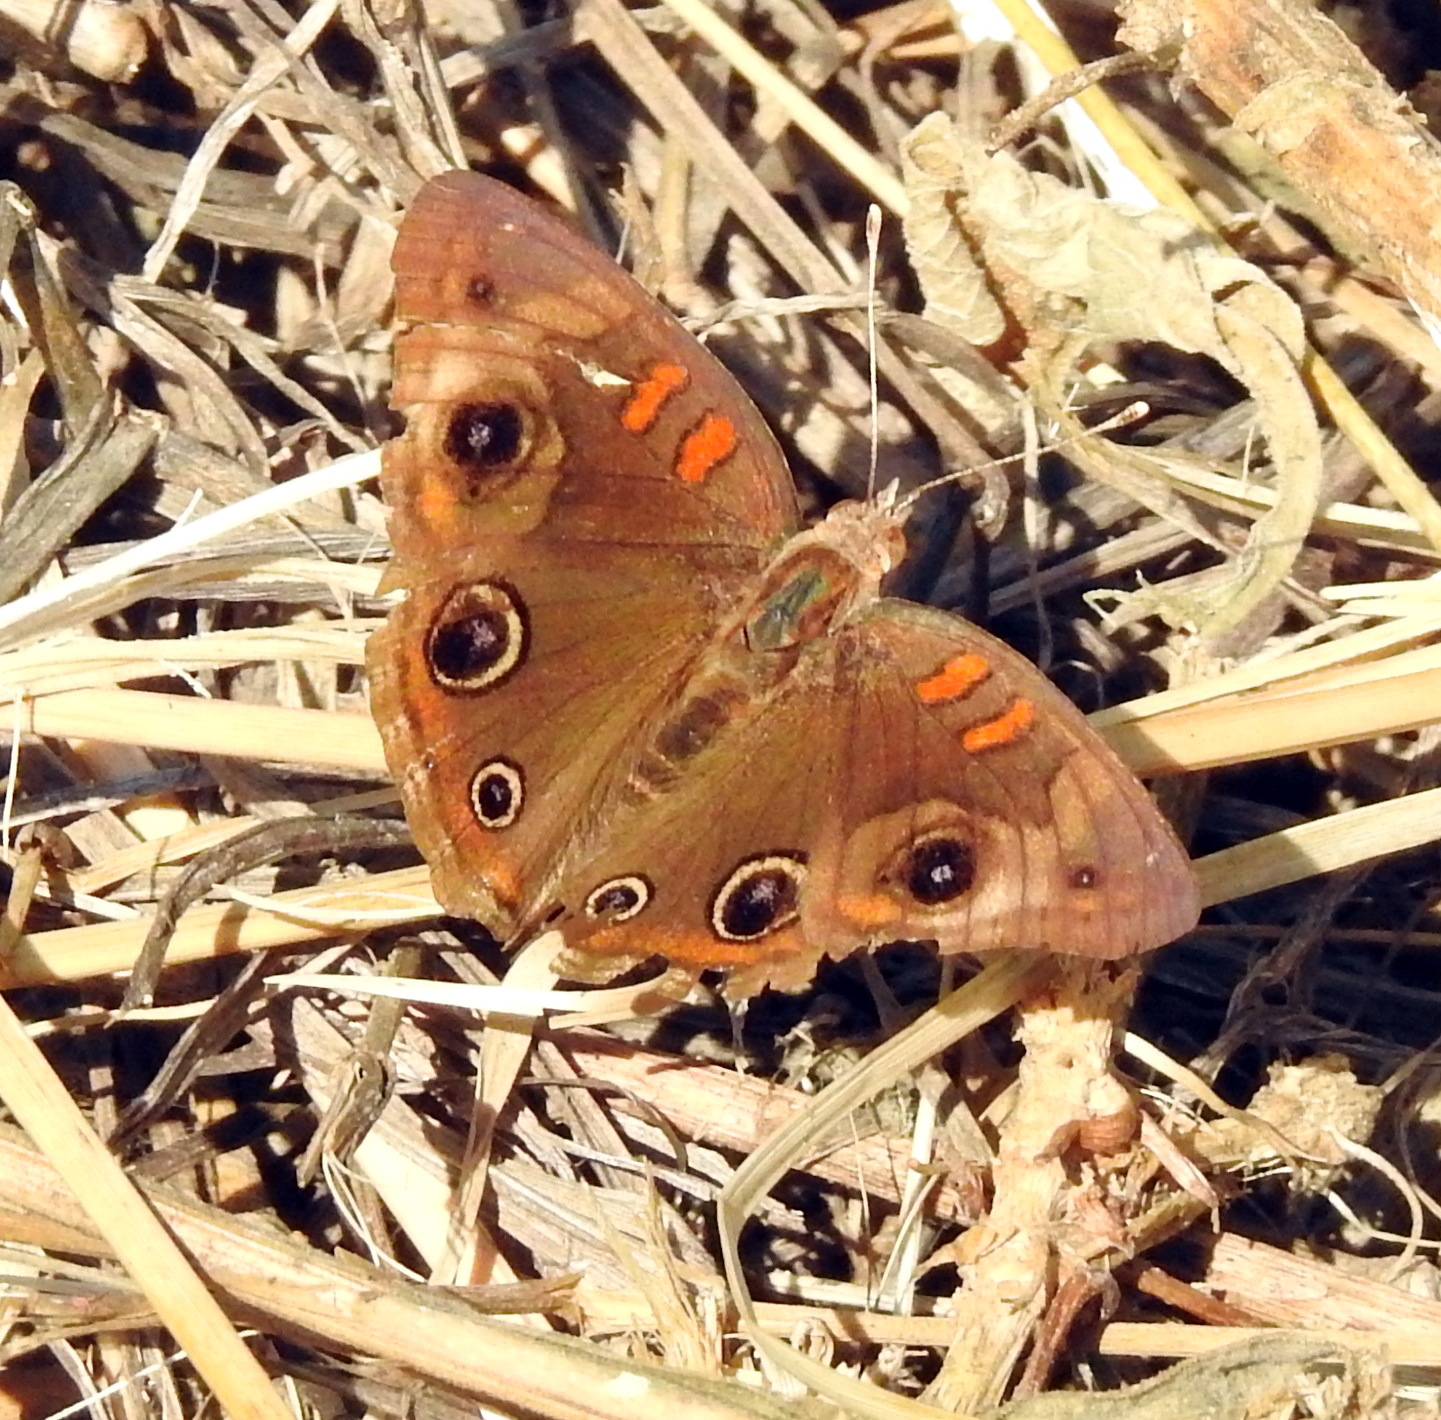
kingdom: Animalia
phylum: Arthropoda
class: Insecta
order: Lepidoptera
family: Nymphalidae
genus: Junonia
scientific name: Junonia stemosa
